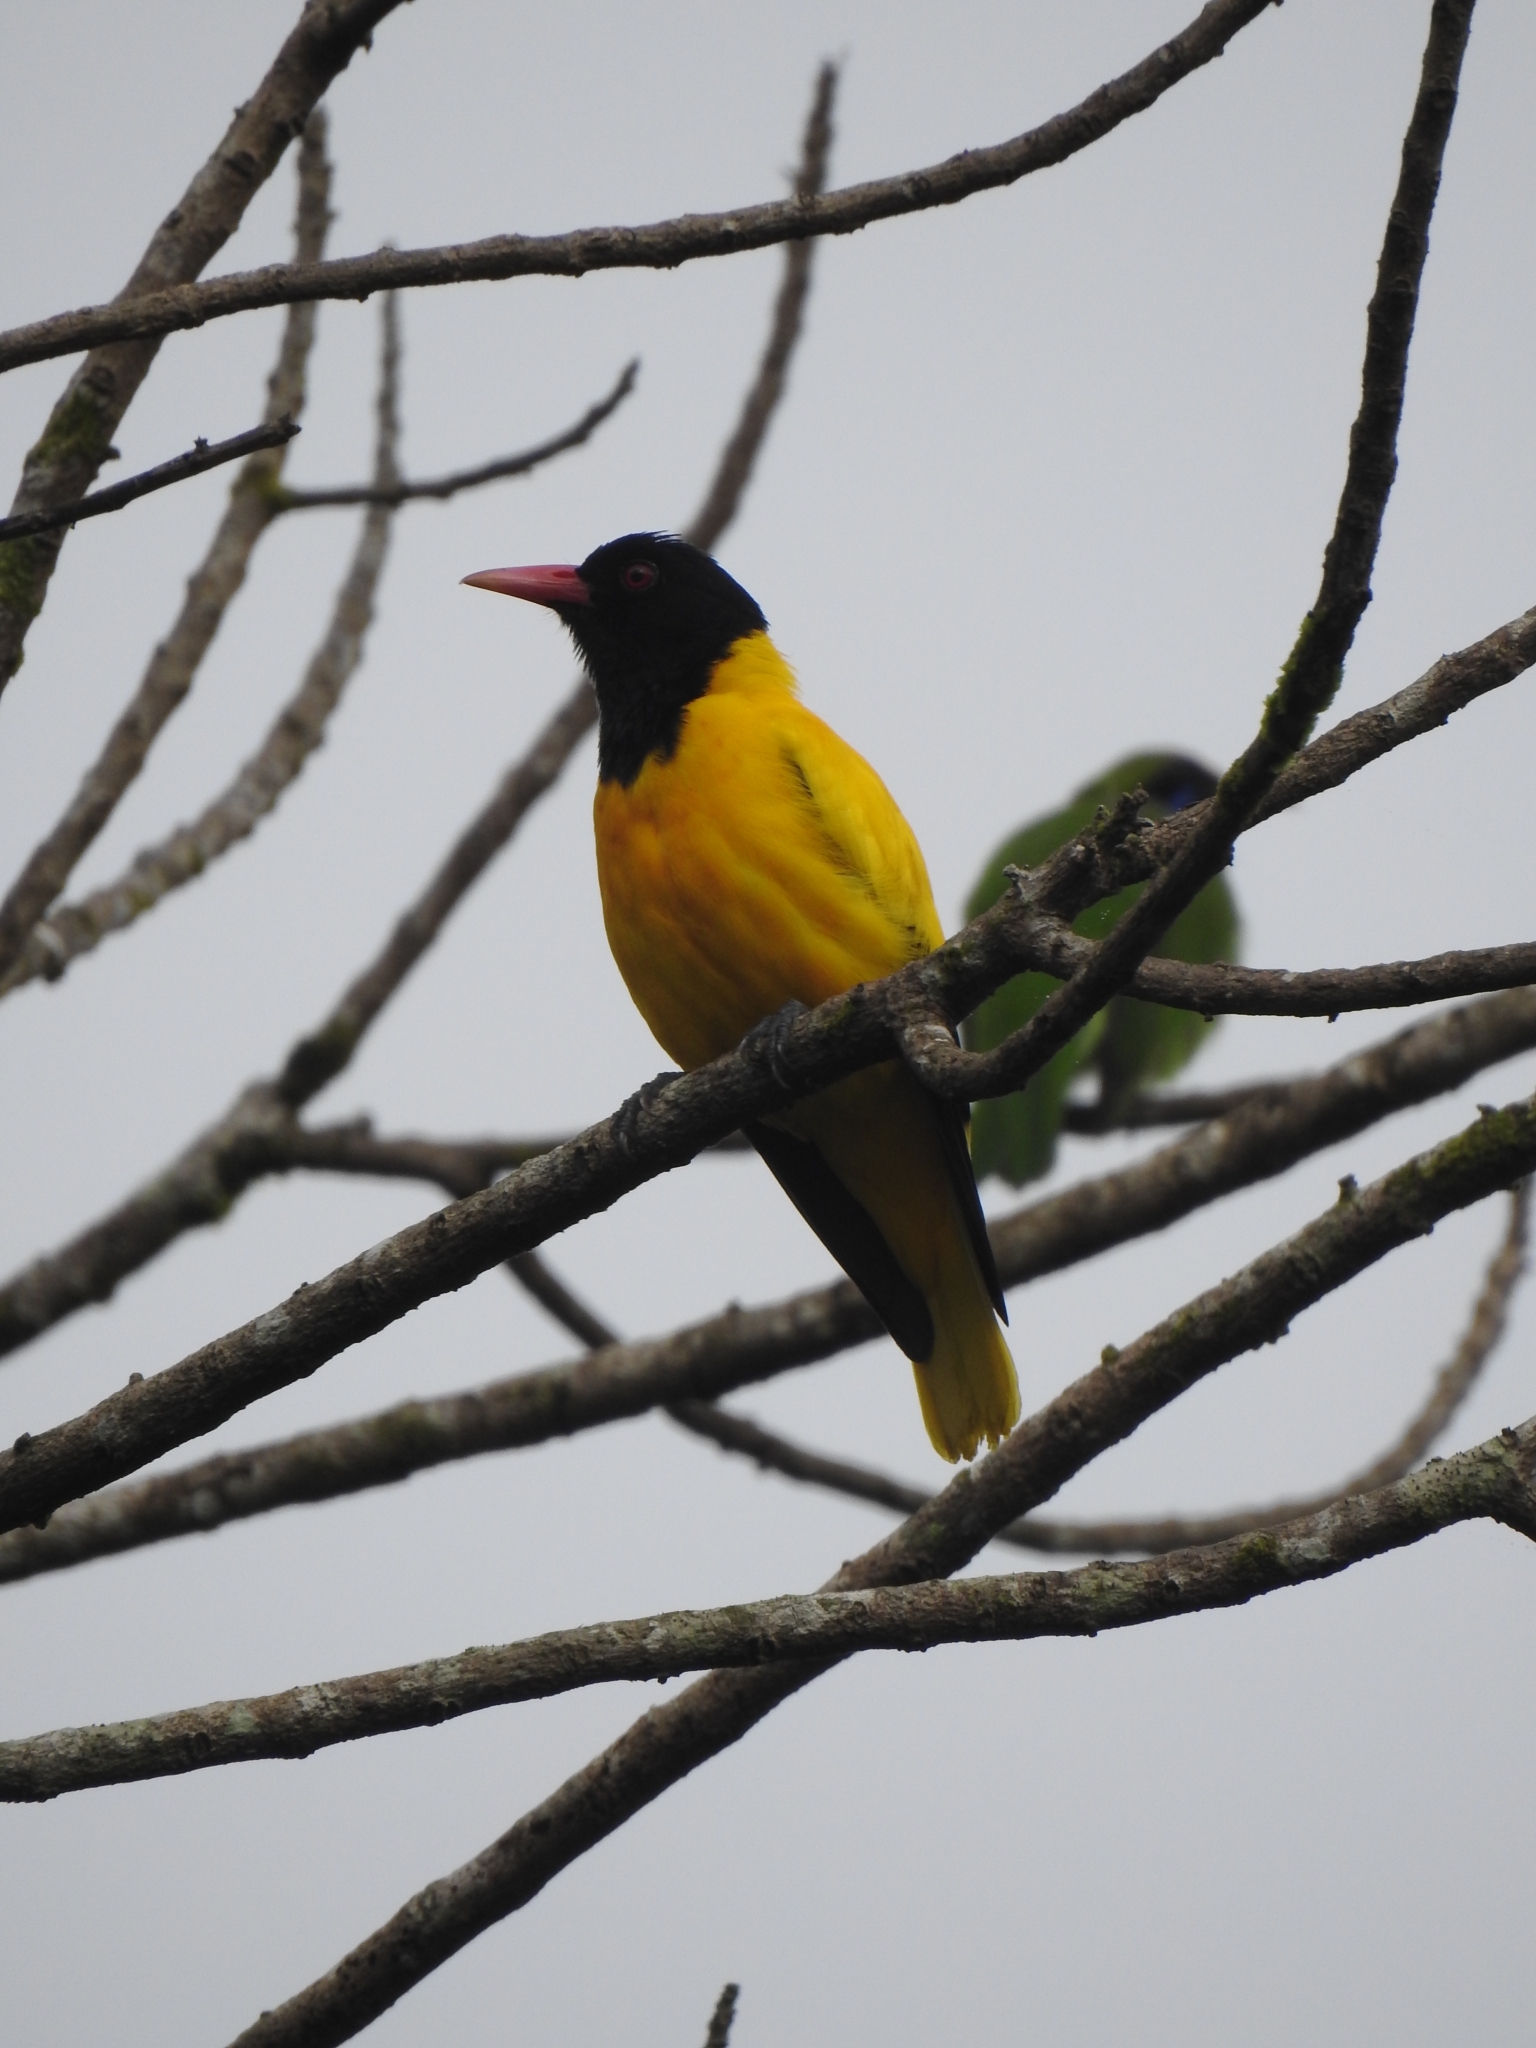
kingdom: Animalia
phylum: Chordata
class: Aves
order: Passeriformes
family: Oriolidae
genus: Oriolus
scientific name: Oriolus xanthornus
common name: Black-hooded oriole
